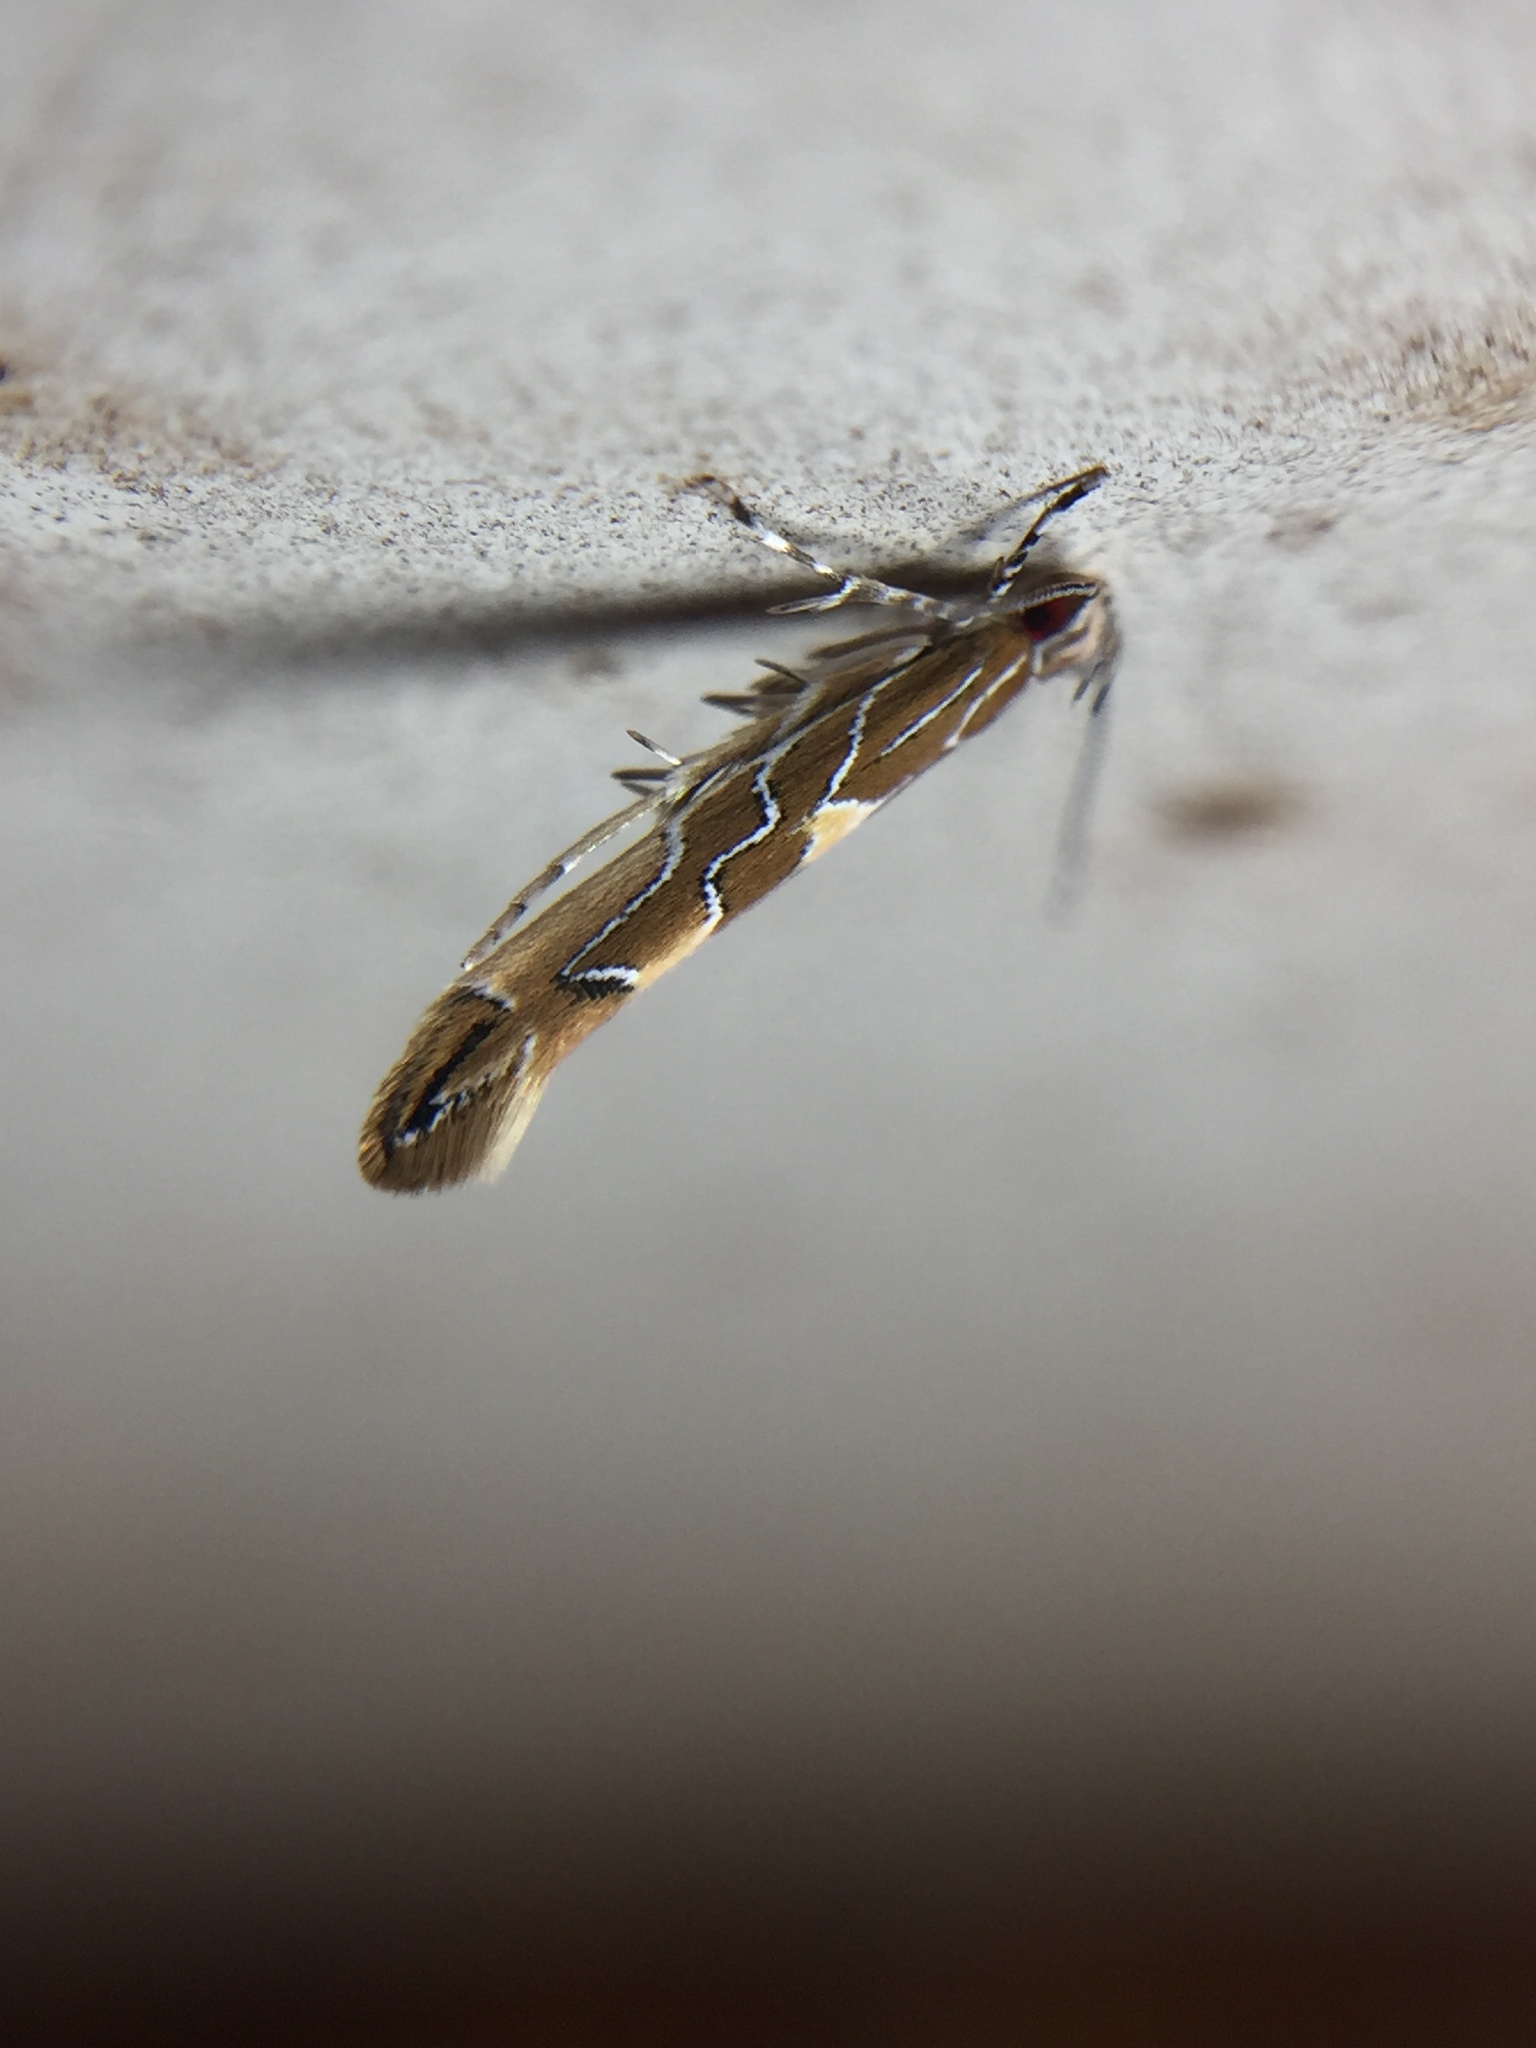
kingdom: Animalia
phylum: Arthropoda
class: Insecta
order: Lepidoptera
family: Cosmopterigidae
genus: Pyroderces
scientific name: Pyroderces apparitella
